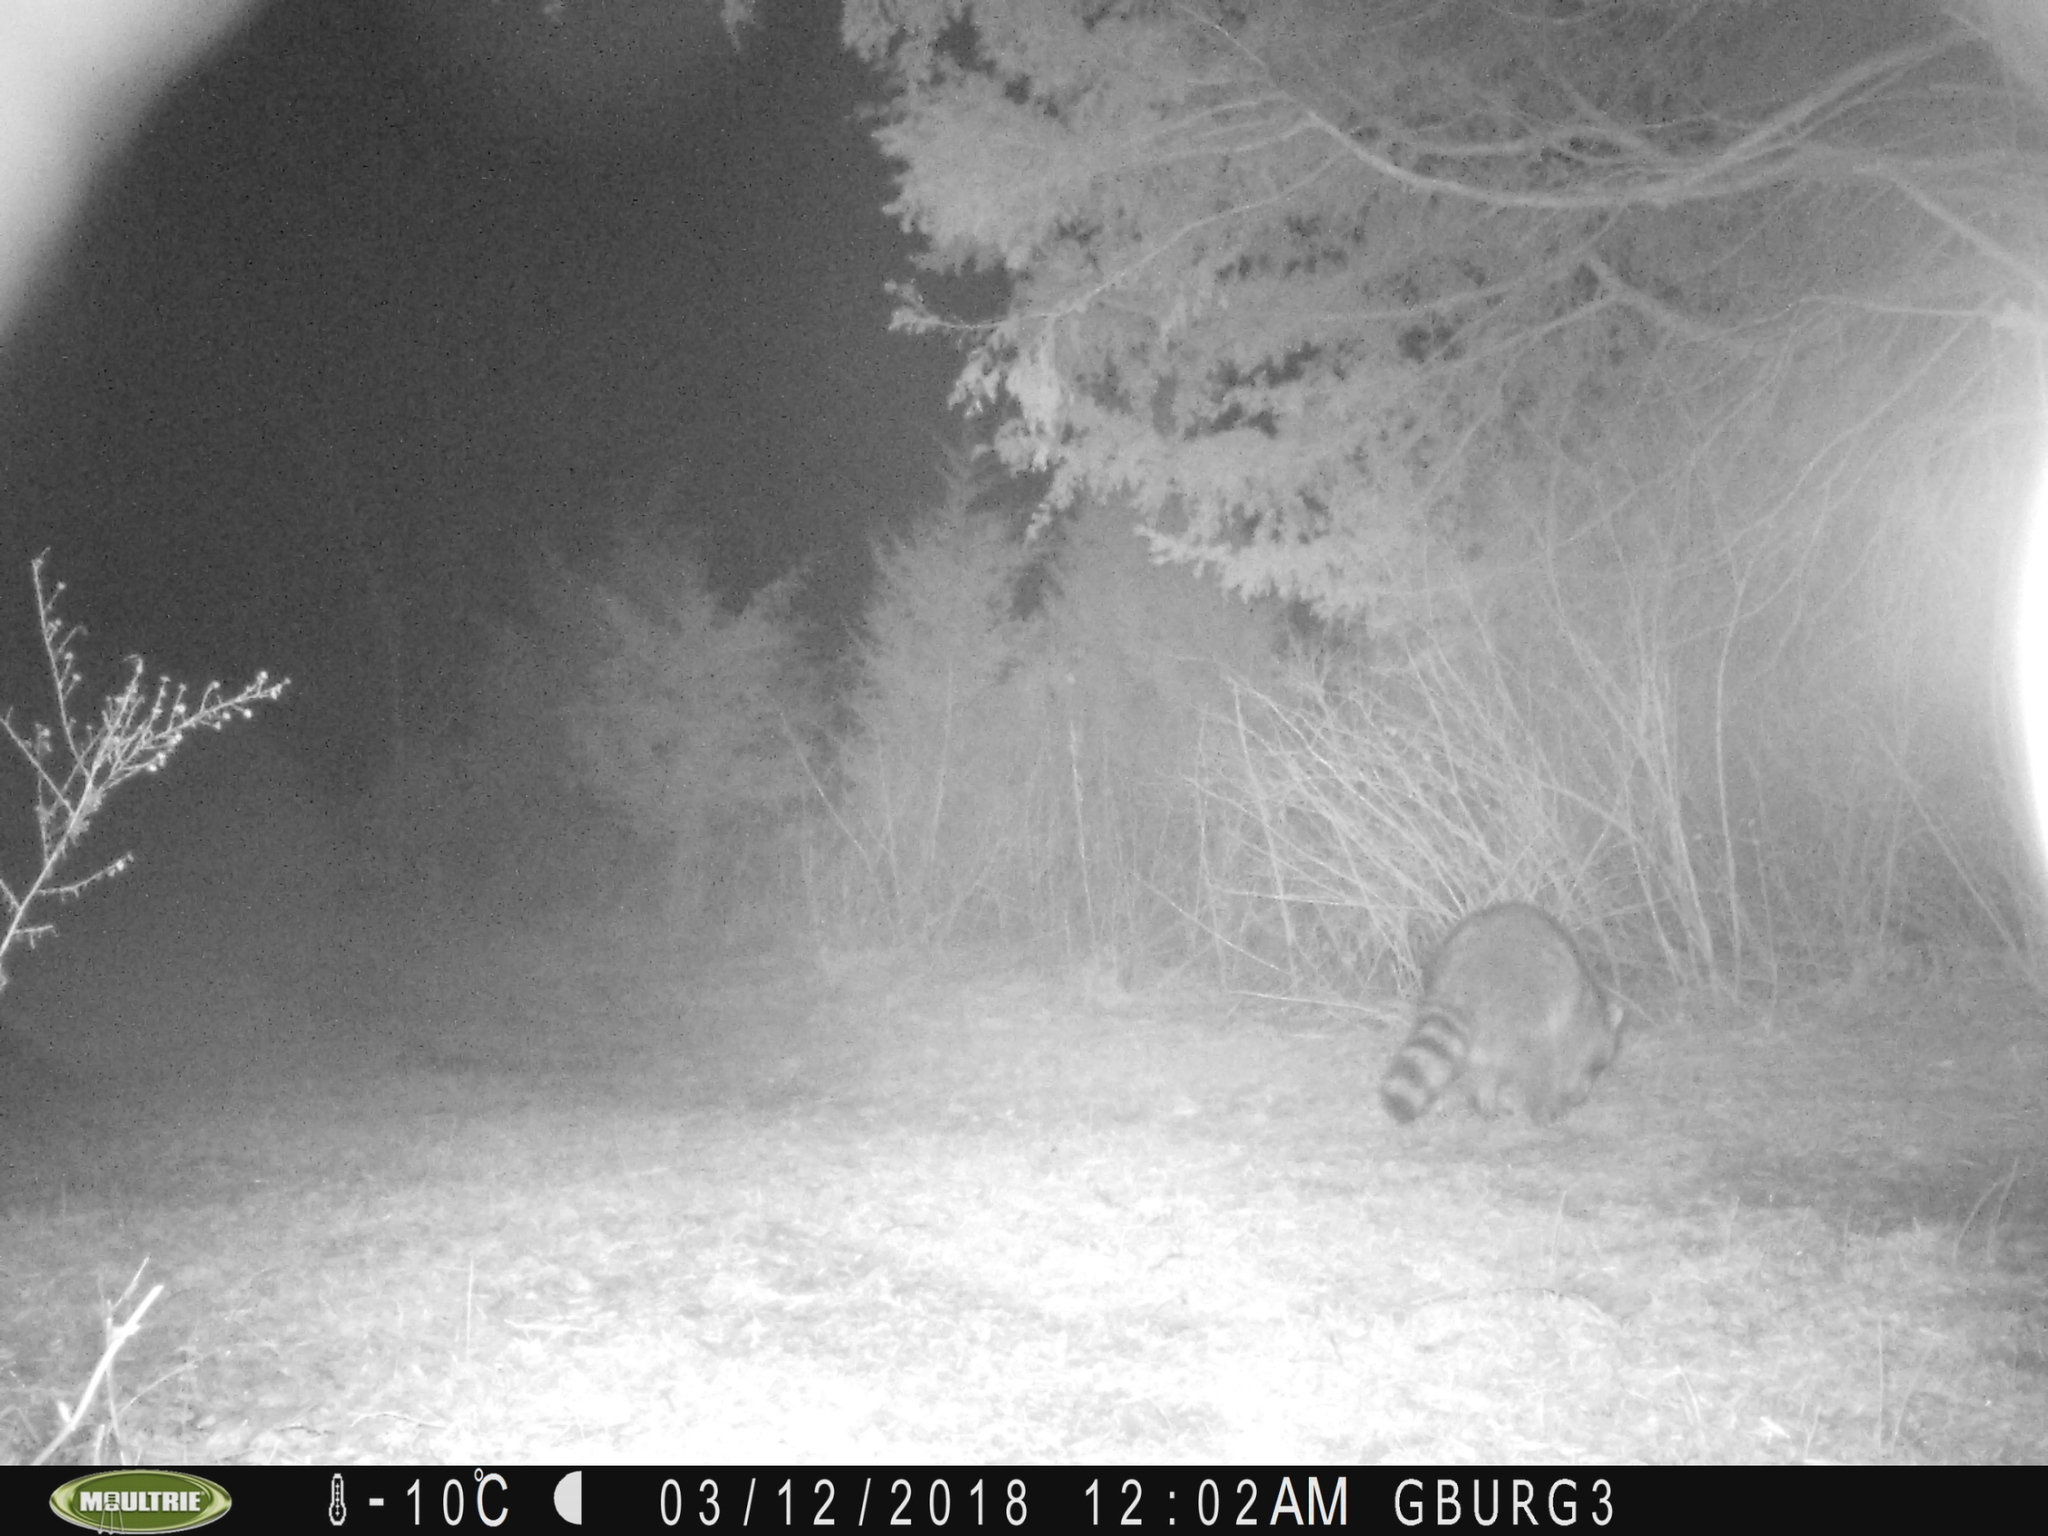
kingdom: Animalia
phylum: Chordata
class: Mammalia
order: Carnivora
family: Procyonidae
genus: Procyon
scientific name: Procyon lotor
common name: Raccoon
